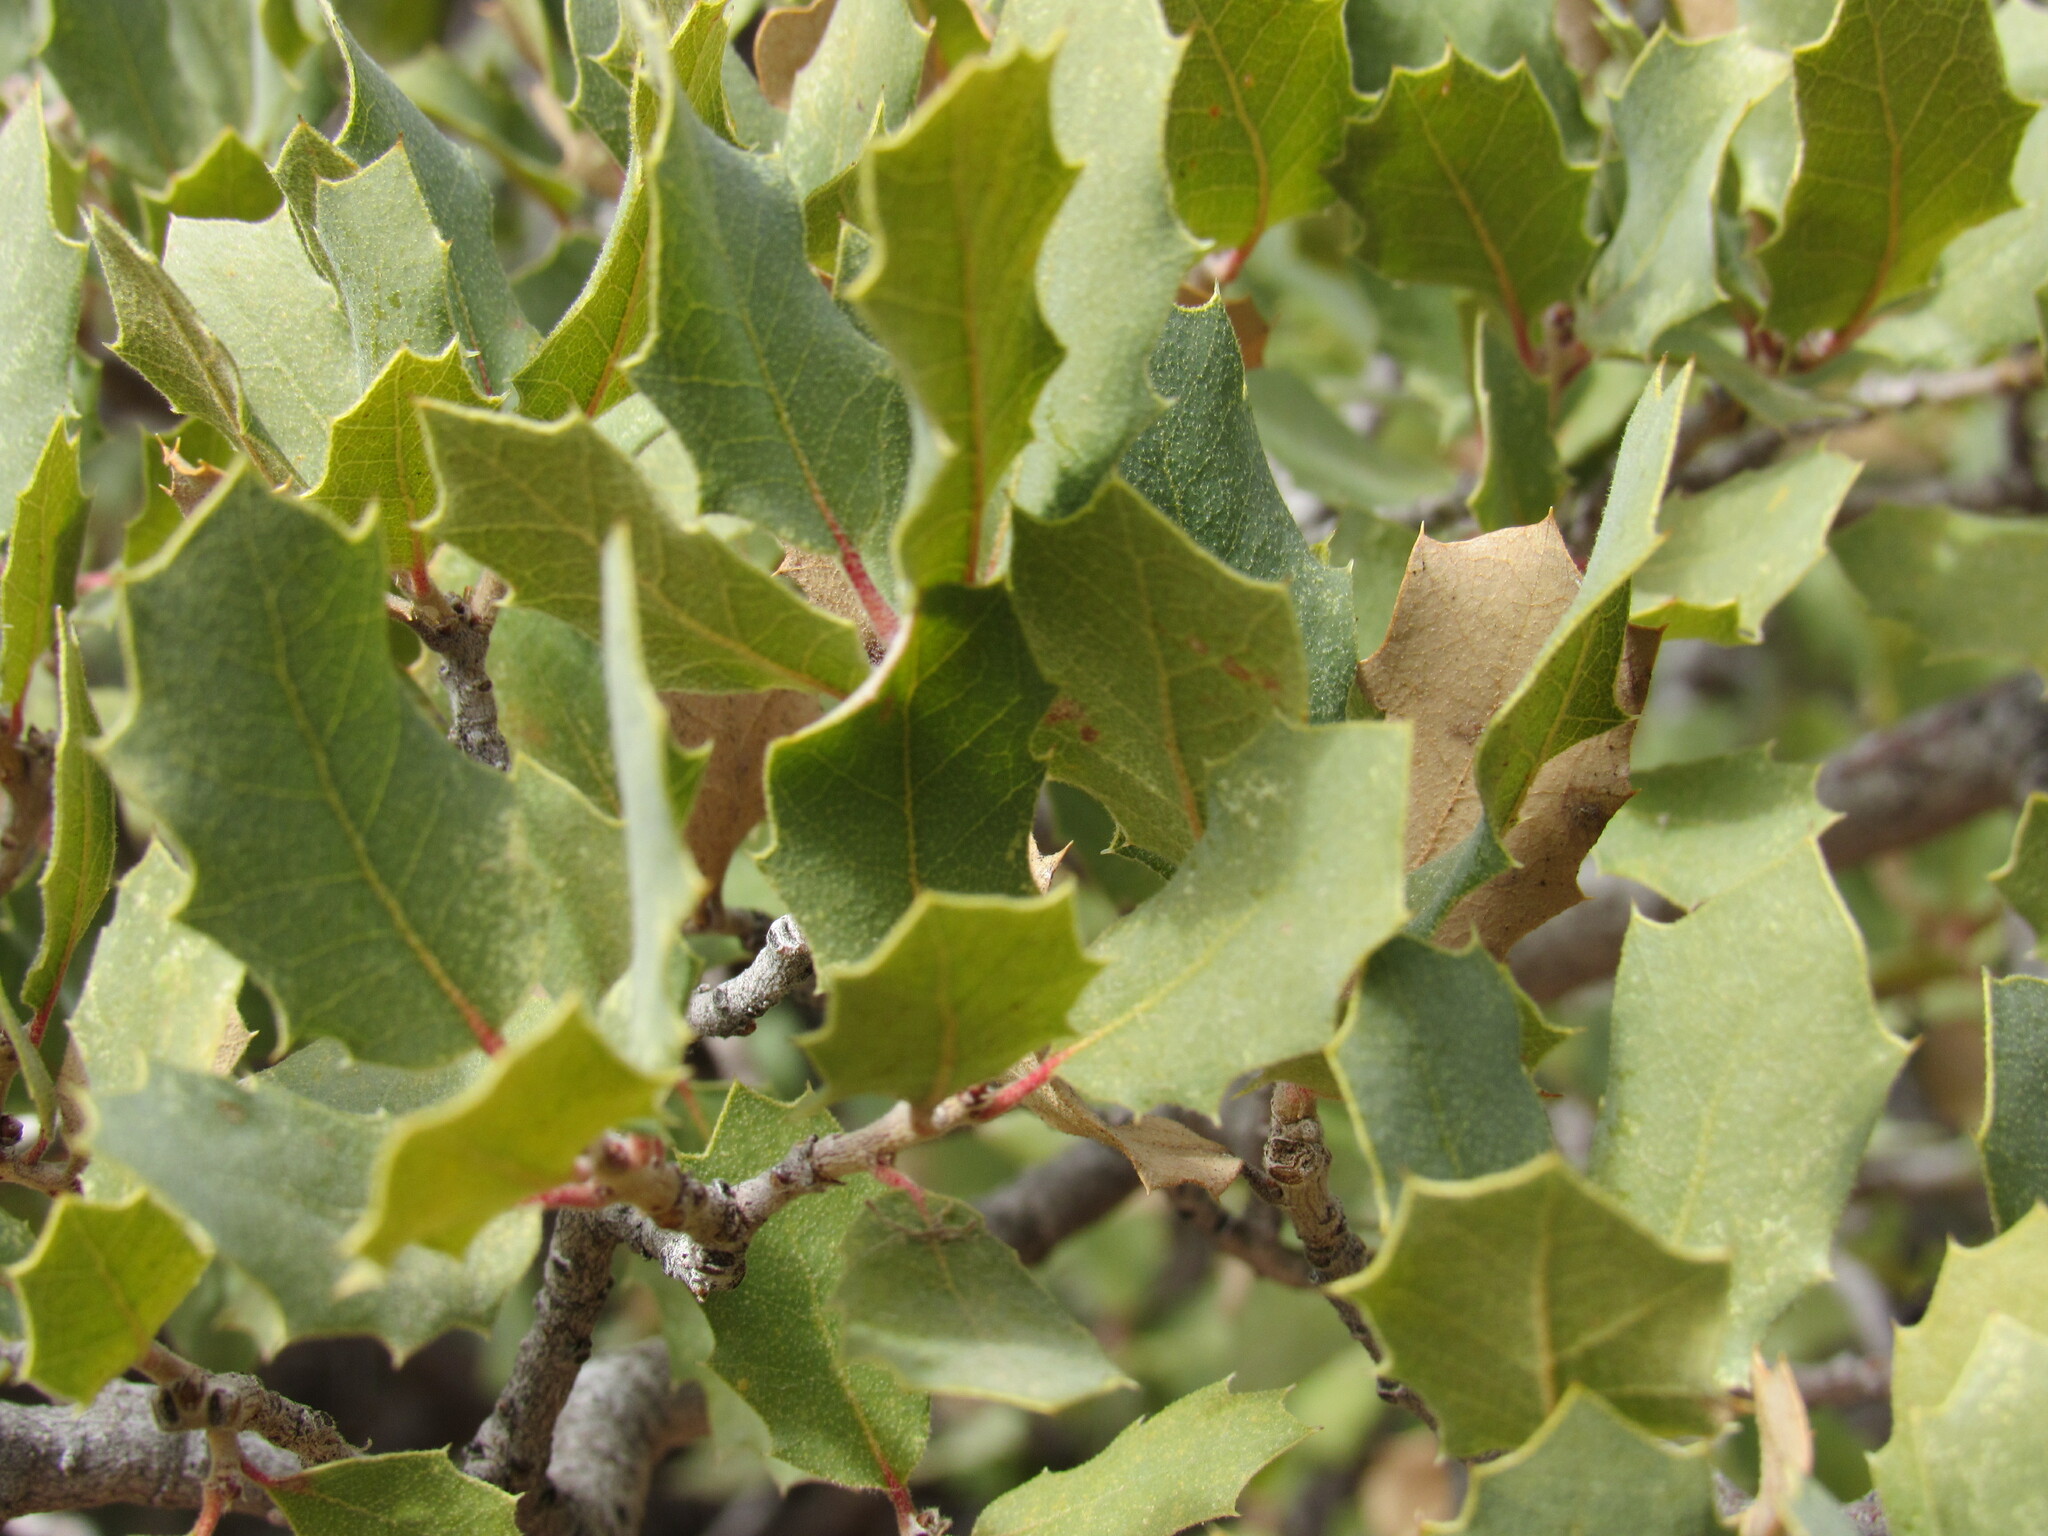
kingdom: Plantae
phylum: Tracheophyta
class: Magnoliopsida
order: Fagales
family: Fagaceae
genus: Quercus
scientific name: Quercus turbinella
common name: Sonoran scrub oak
